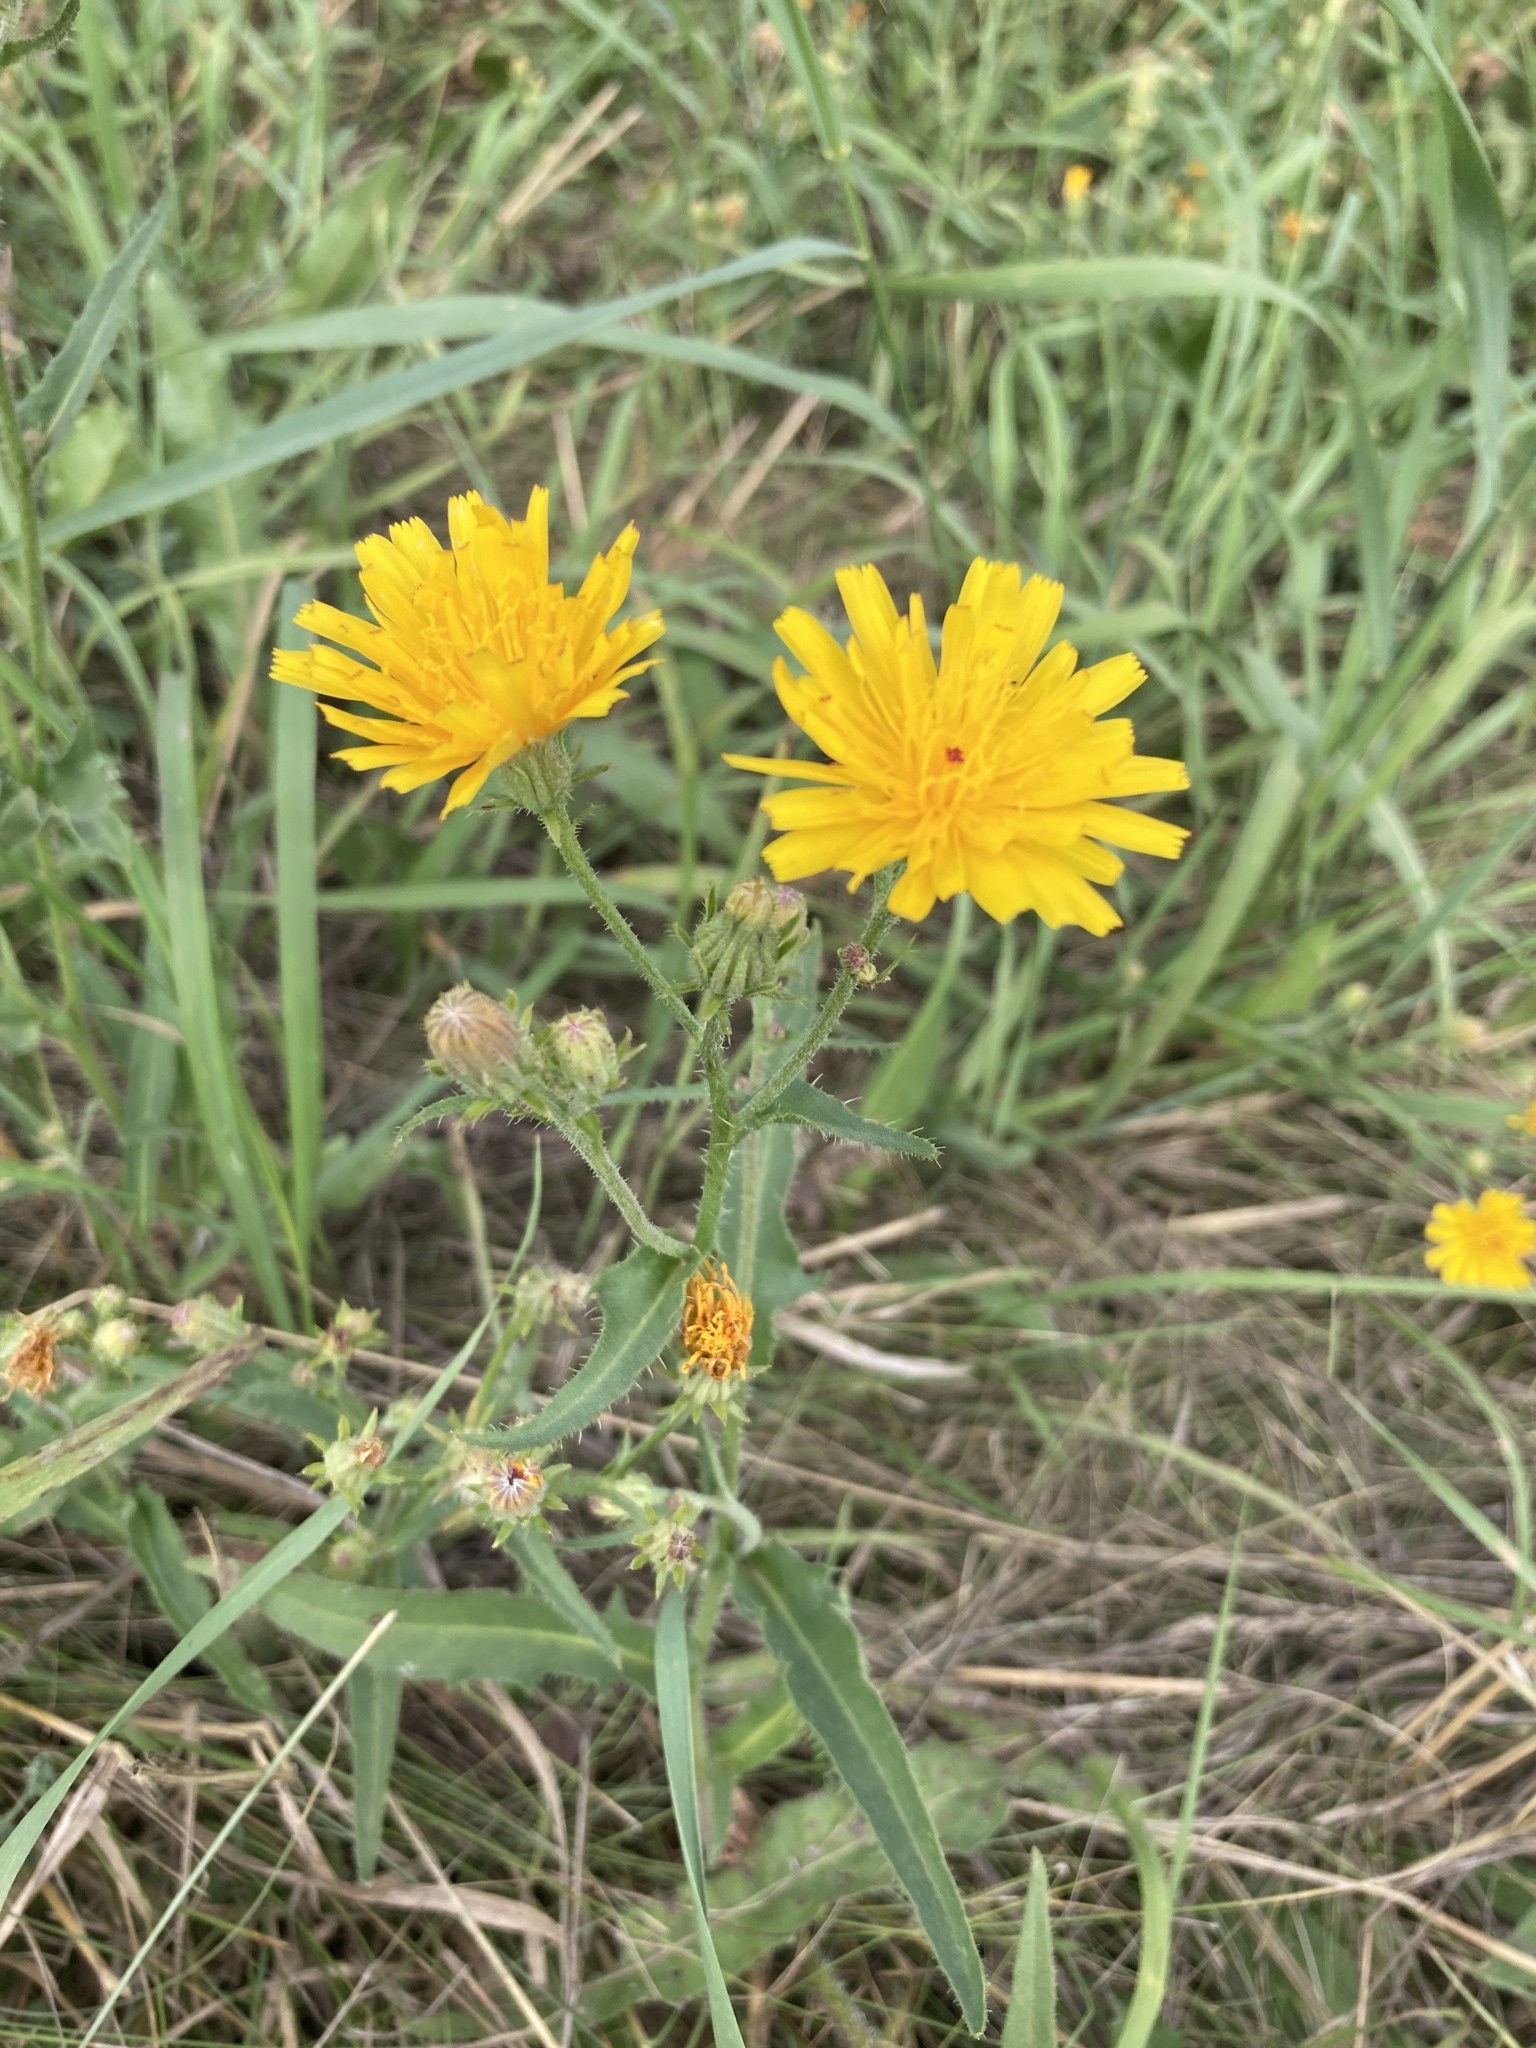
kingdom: Plantae
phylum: Tracheophyta
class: Magnoliopsida
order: Asterales
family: Asteraceae
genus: Picris
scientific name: Picris hieracioides
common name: Hawkweed oxtongue
